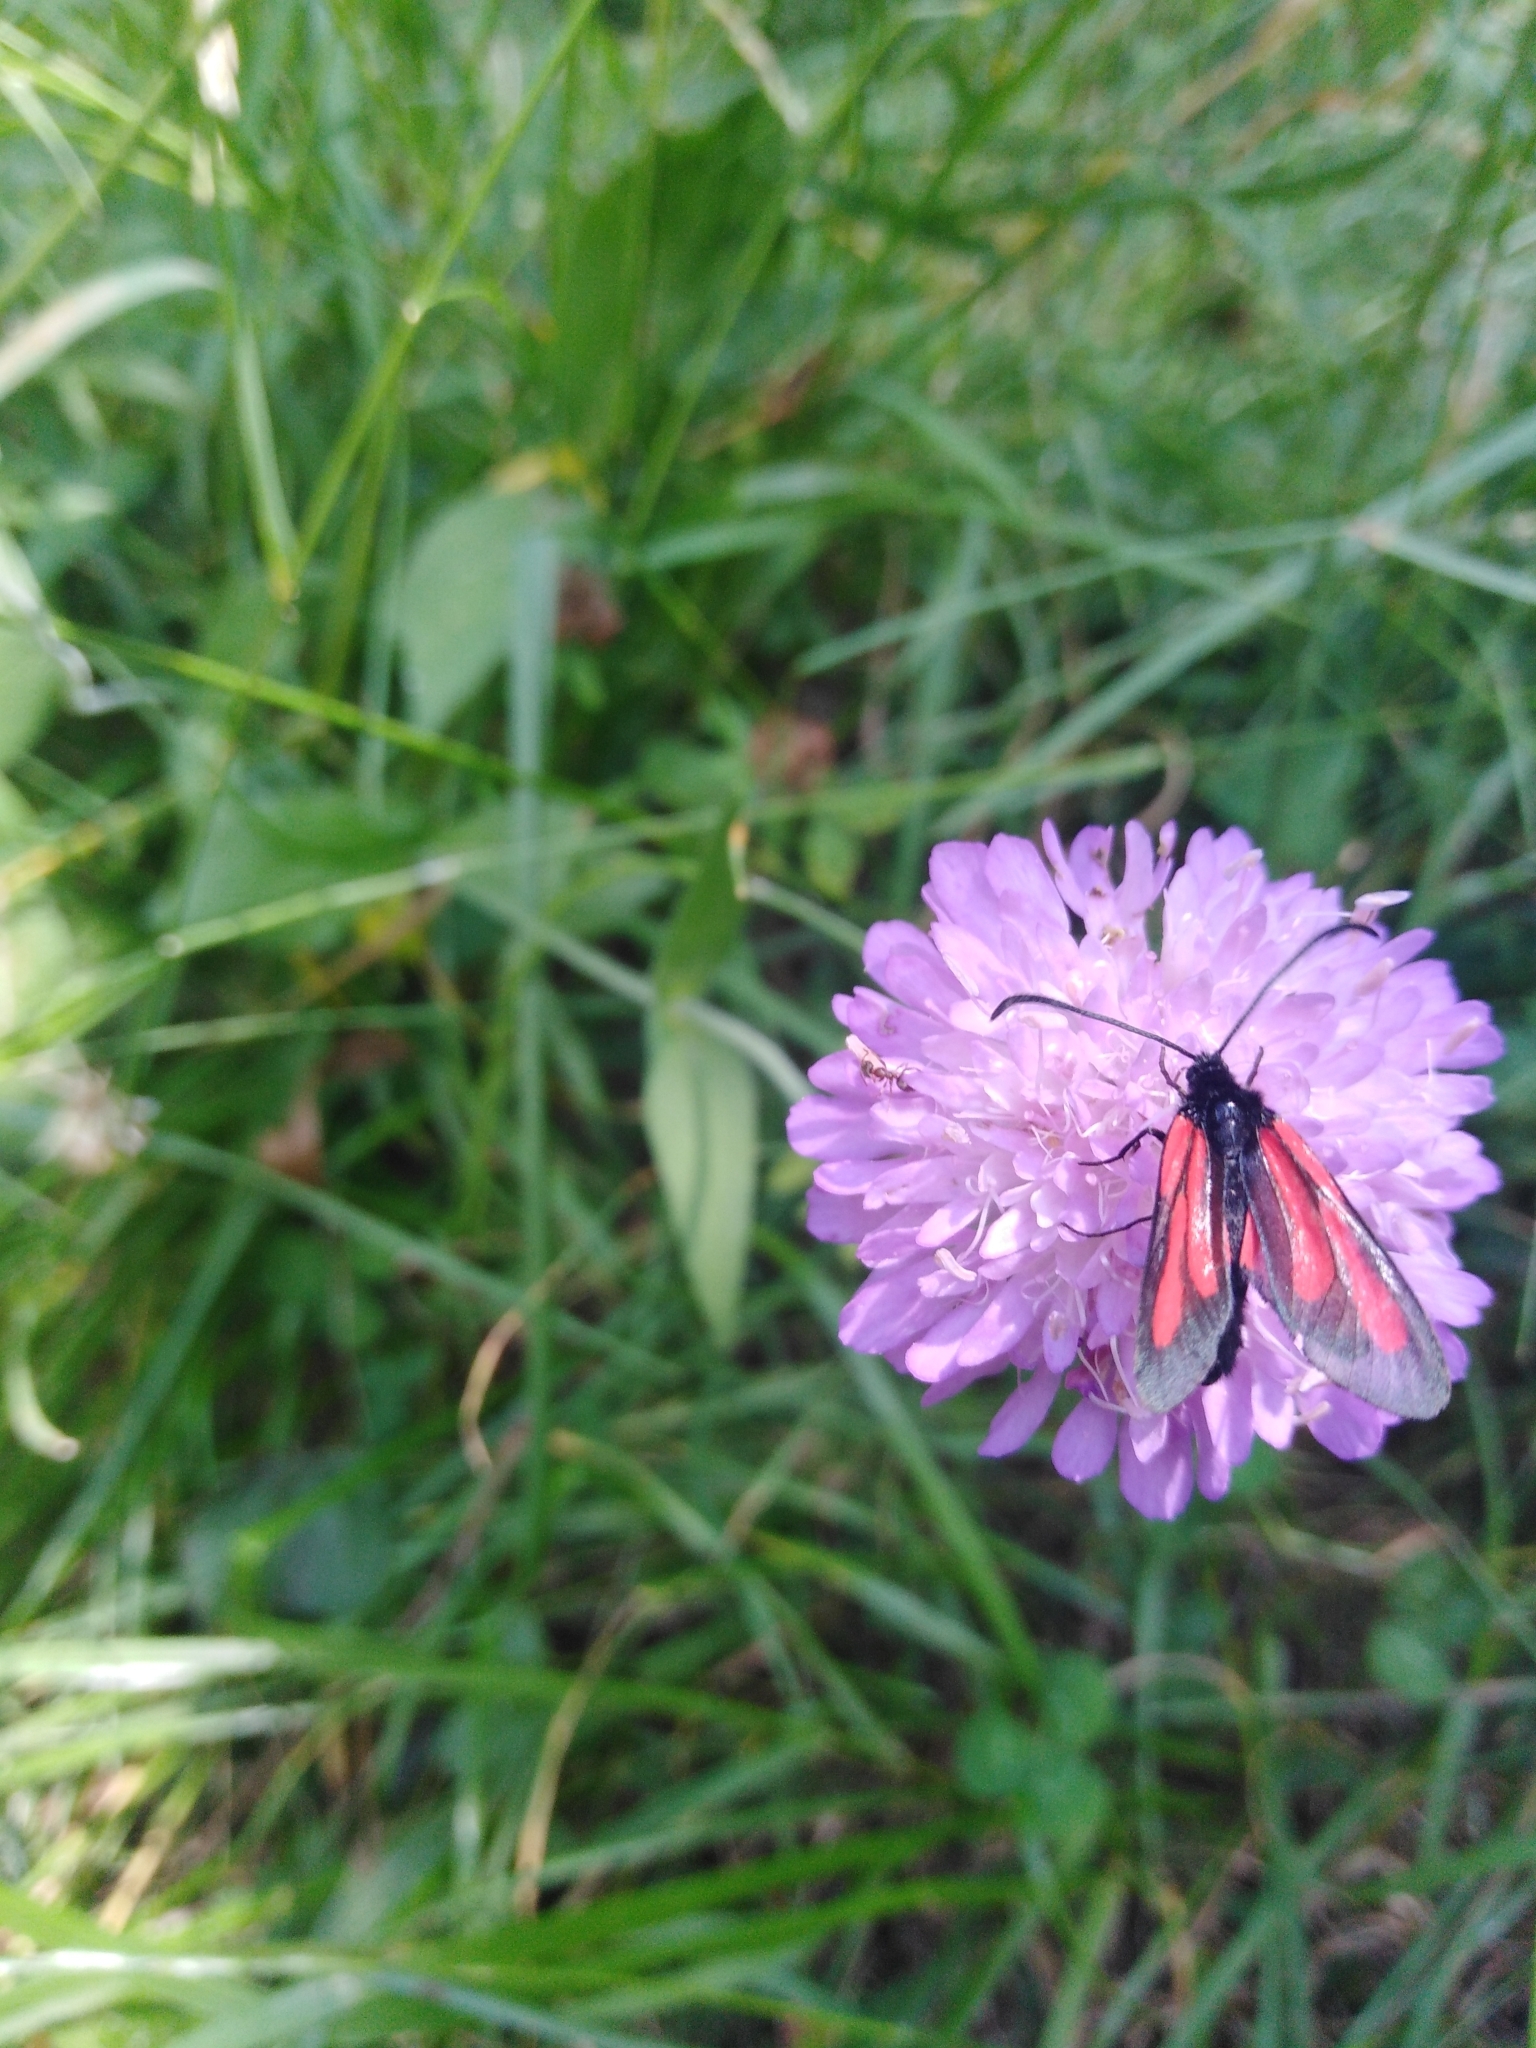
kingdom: Animalia
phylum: Arthropoda
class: Insecta
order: Lepidoptera
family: Zygaenidae
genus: Zygaena
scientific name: Zygaena osterodensis
